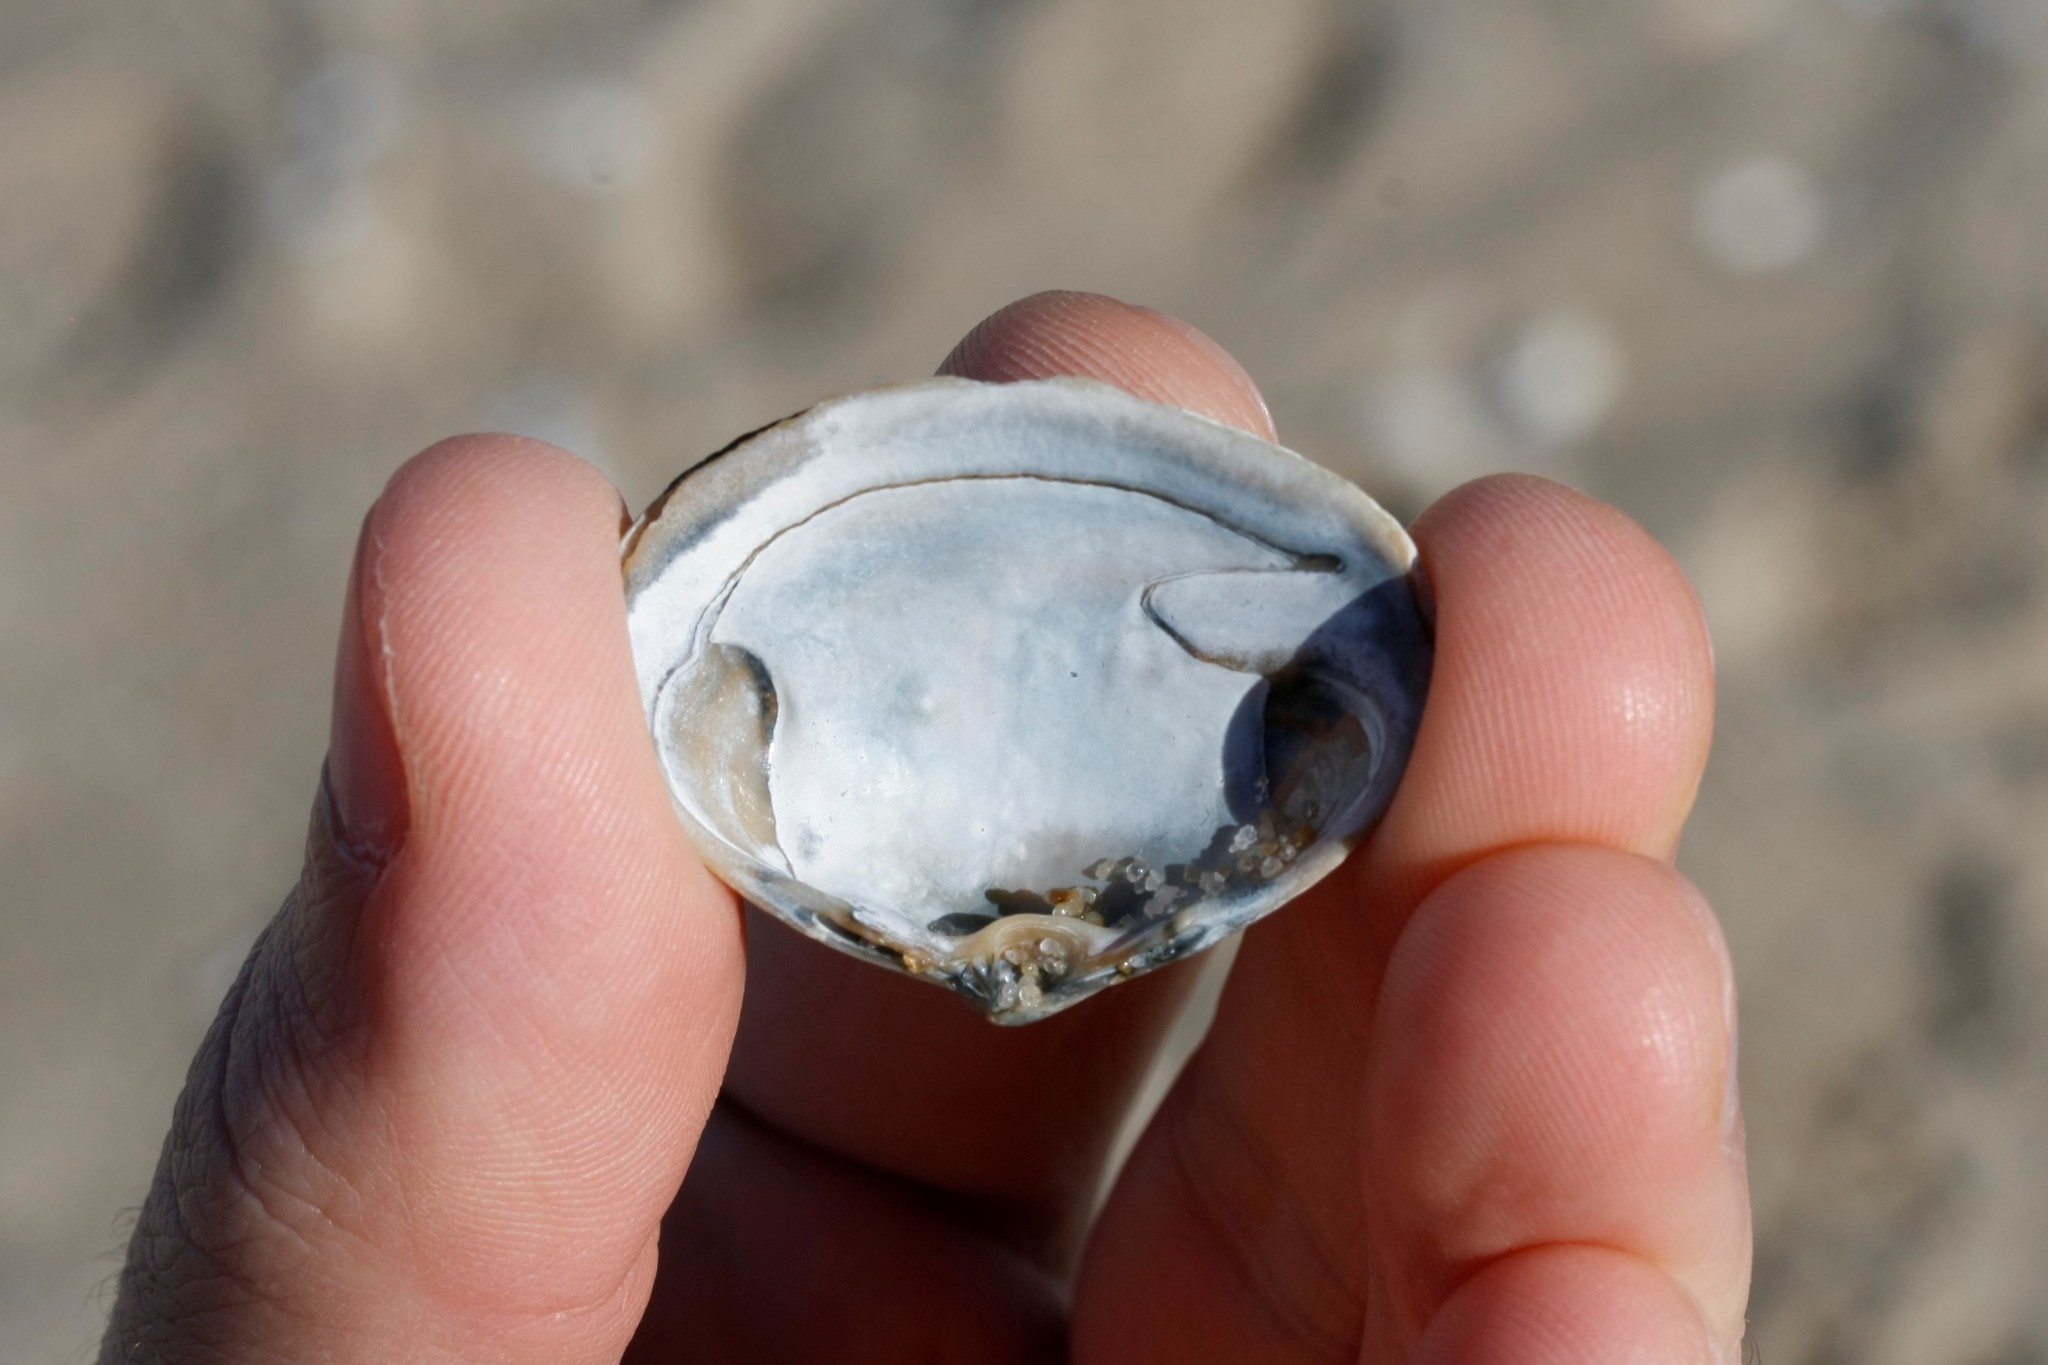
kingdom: Animalia
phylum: Mollusca
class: Bivalvia
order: Venerida
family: Mactridae
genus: Spisula
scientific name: Spisula solida
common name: Thick trough shell
